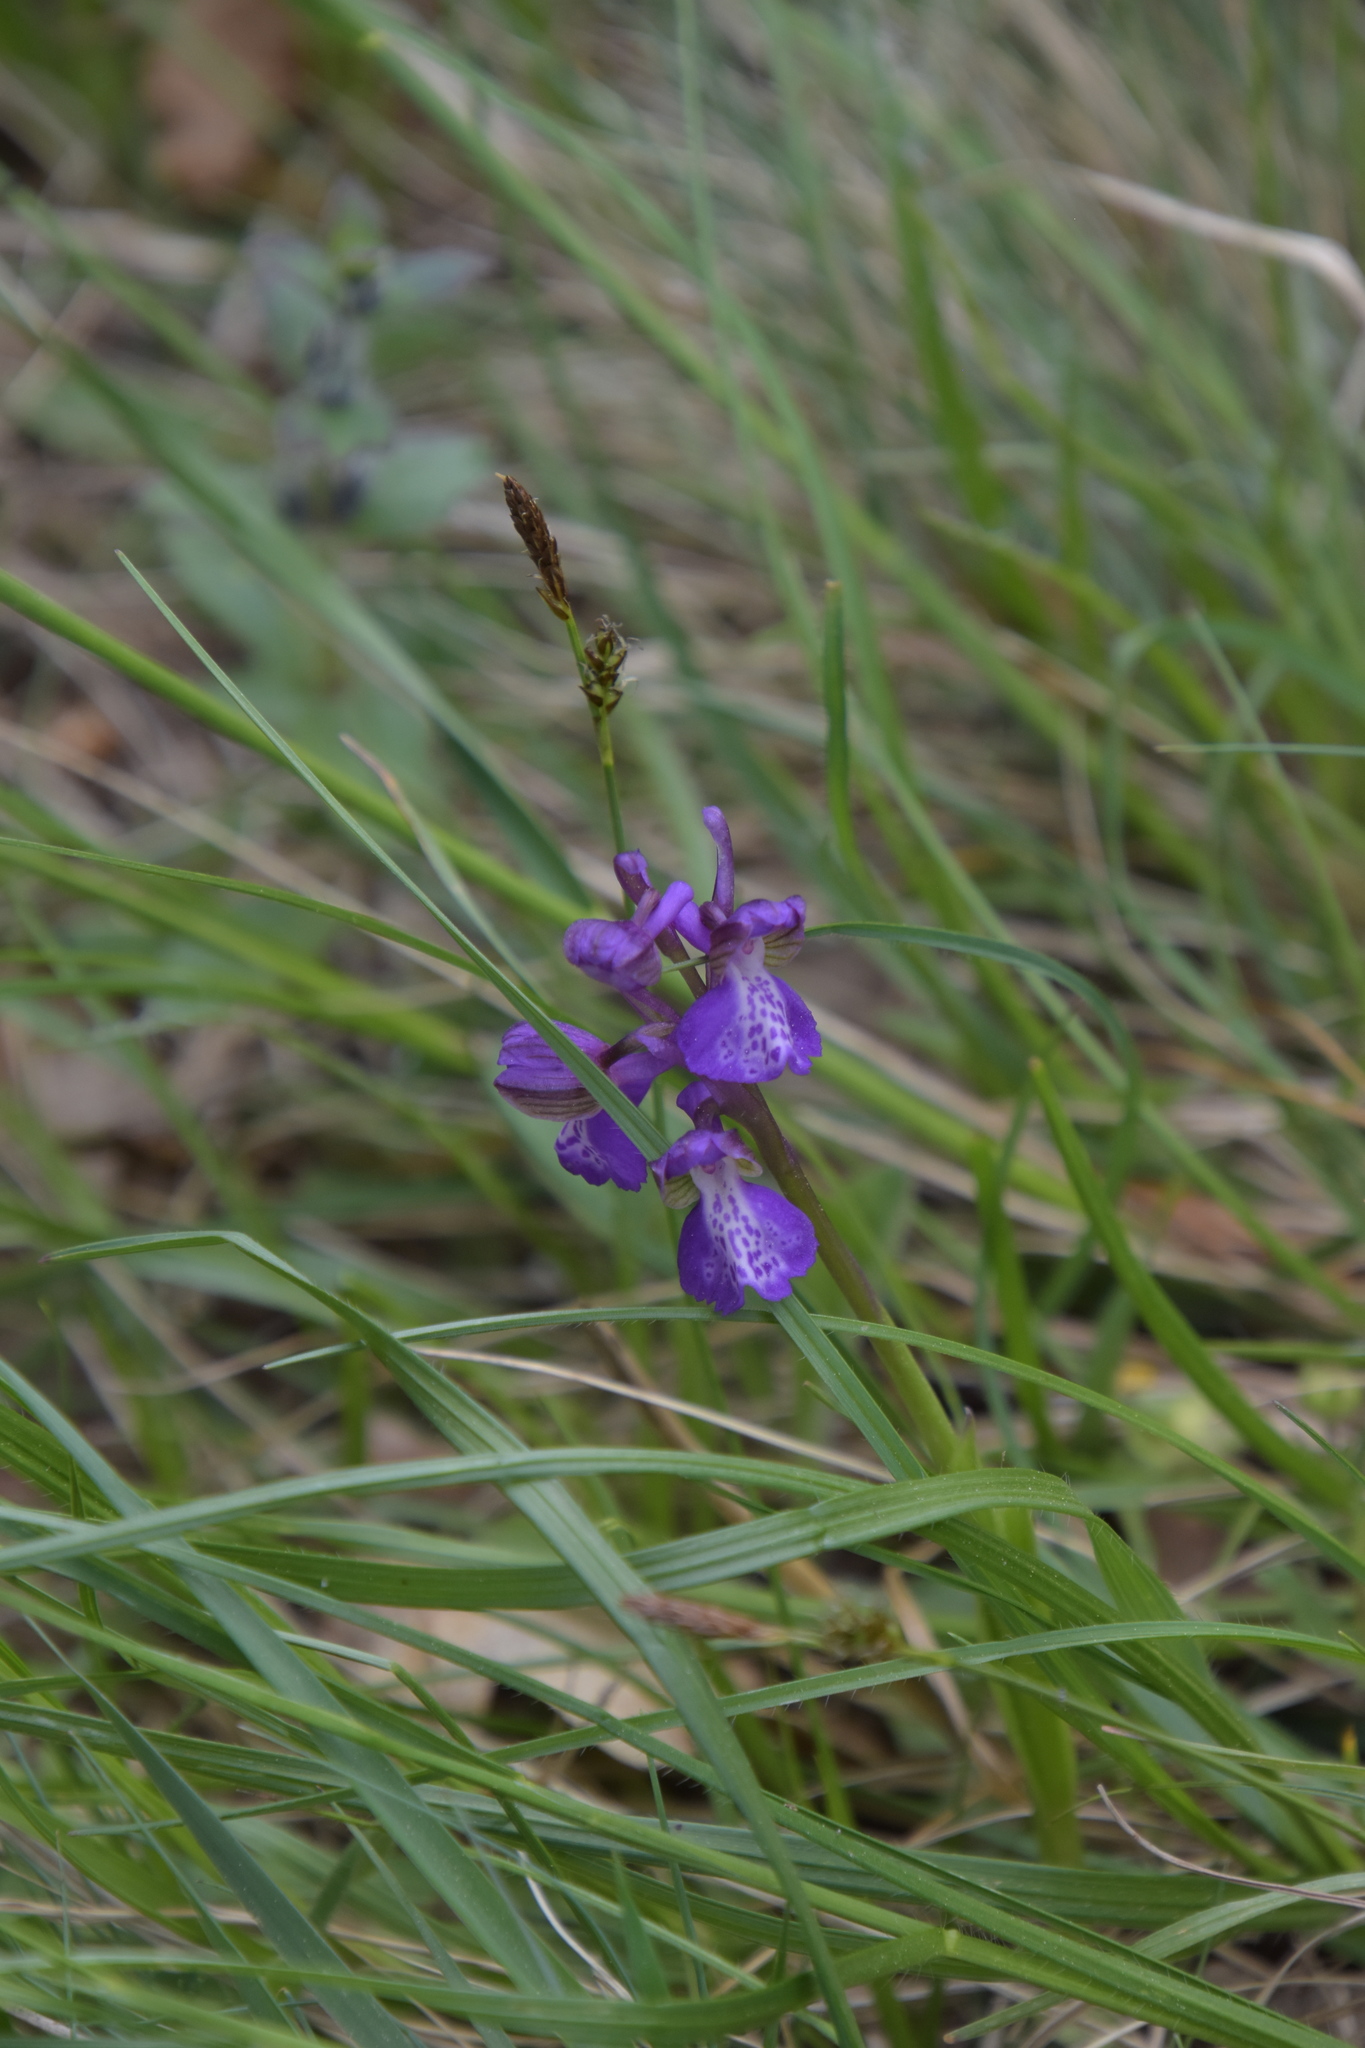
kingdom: Plantae
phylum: Tracheophyta
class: Liliopsida
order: Asparagales
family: Orchidaceae
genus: Anacamptis
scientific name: Anacamptis morio
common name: Green-winged orchid
